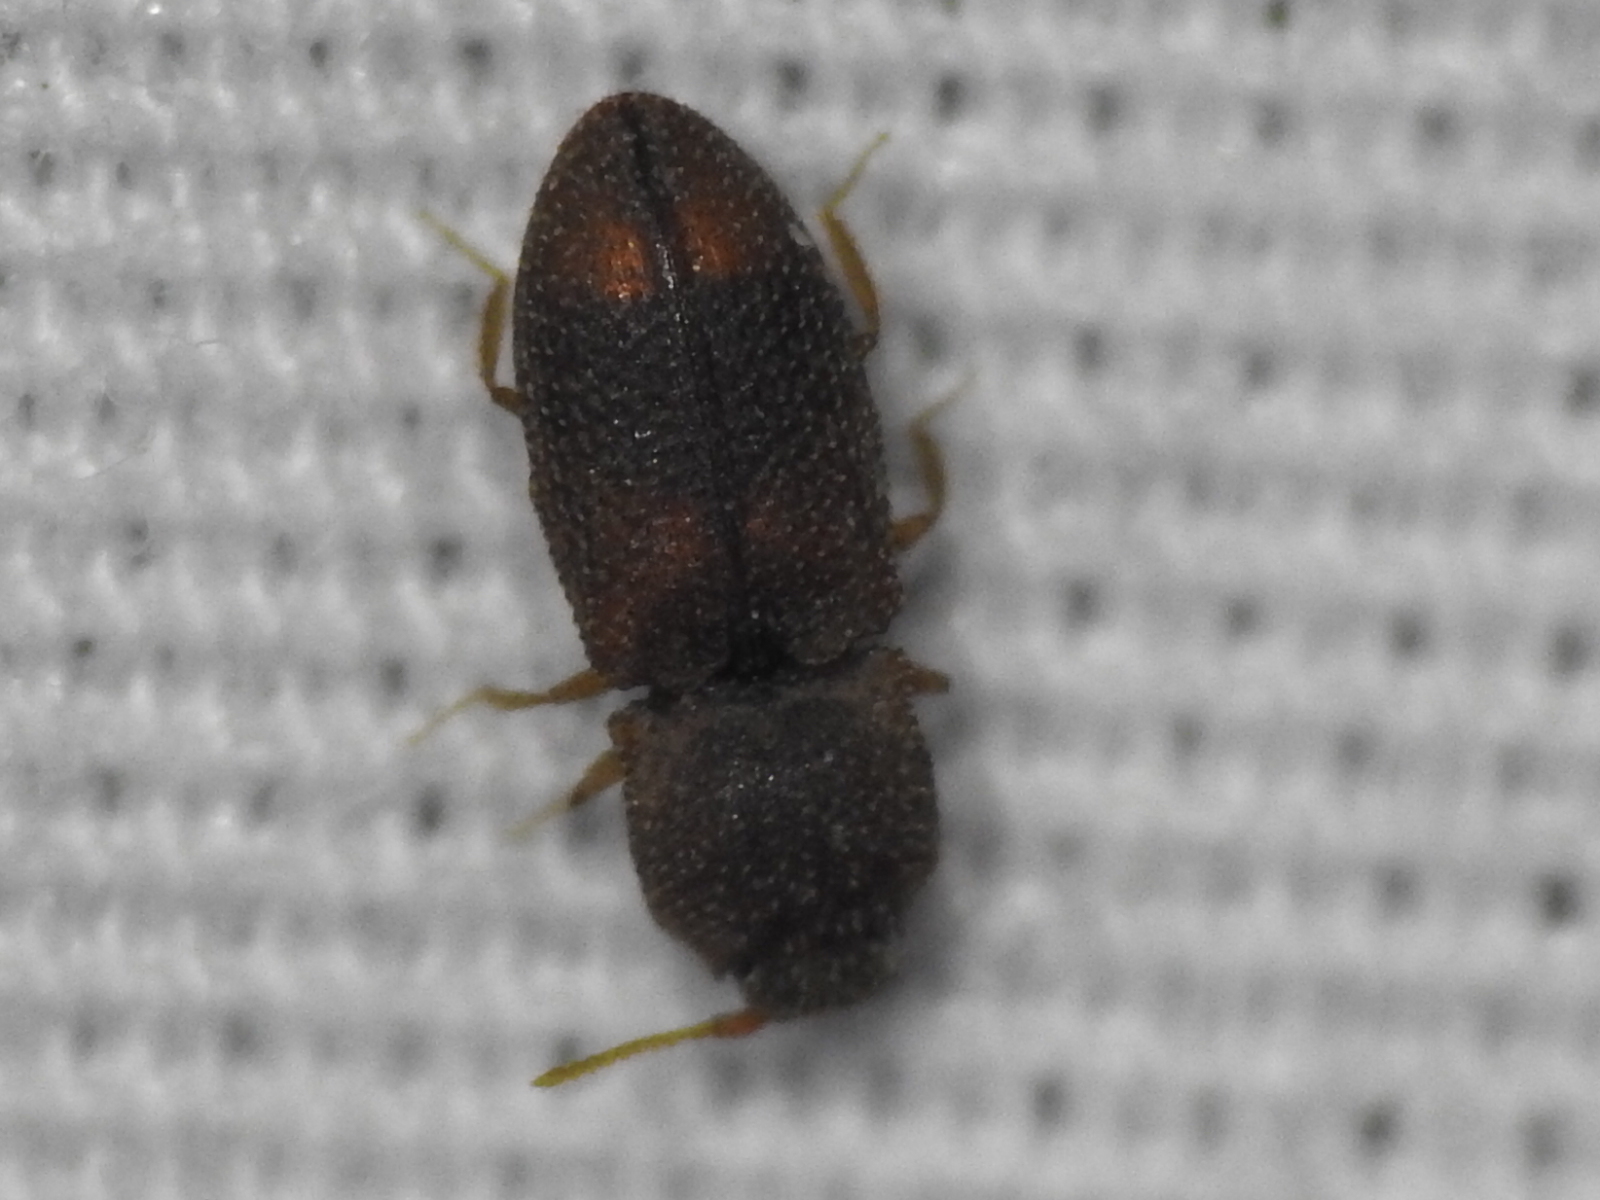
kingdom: Animalia
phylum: Arthropoda
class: Insecta
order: Coleoptera
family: Elateridae
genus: Rismethus
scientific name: Rismethus scobinula
